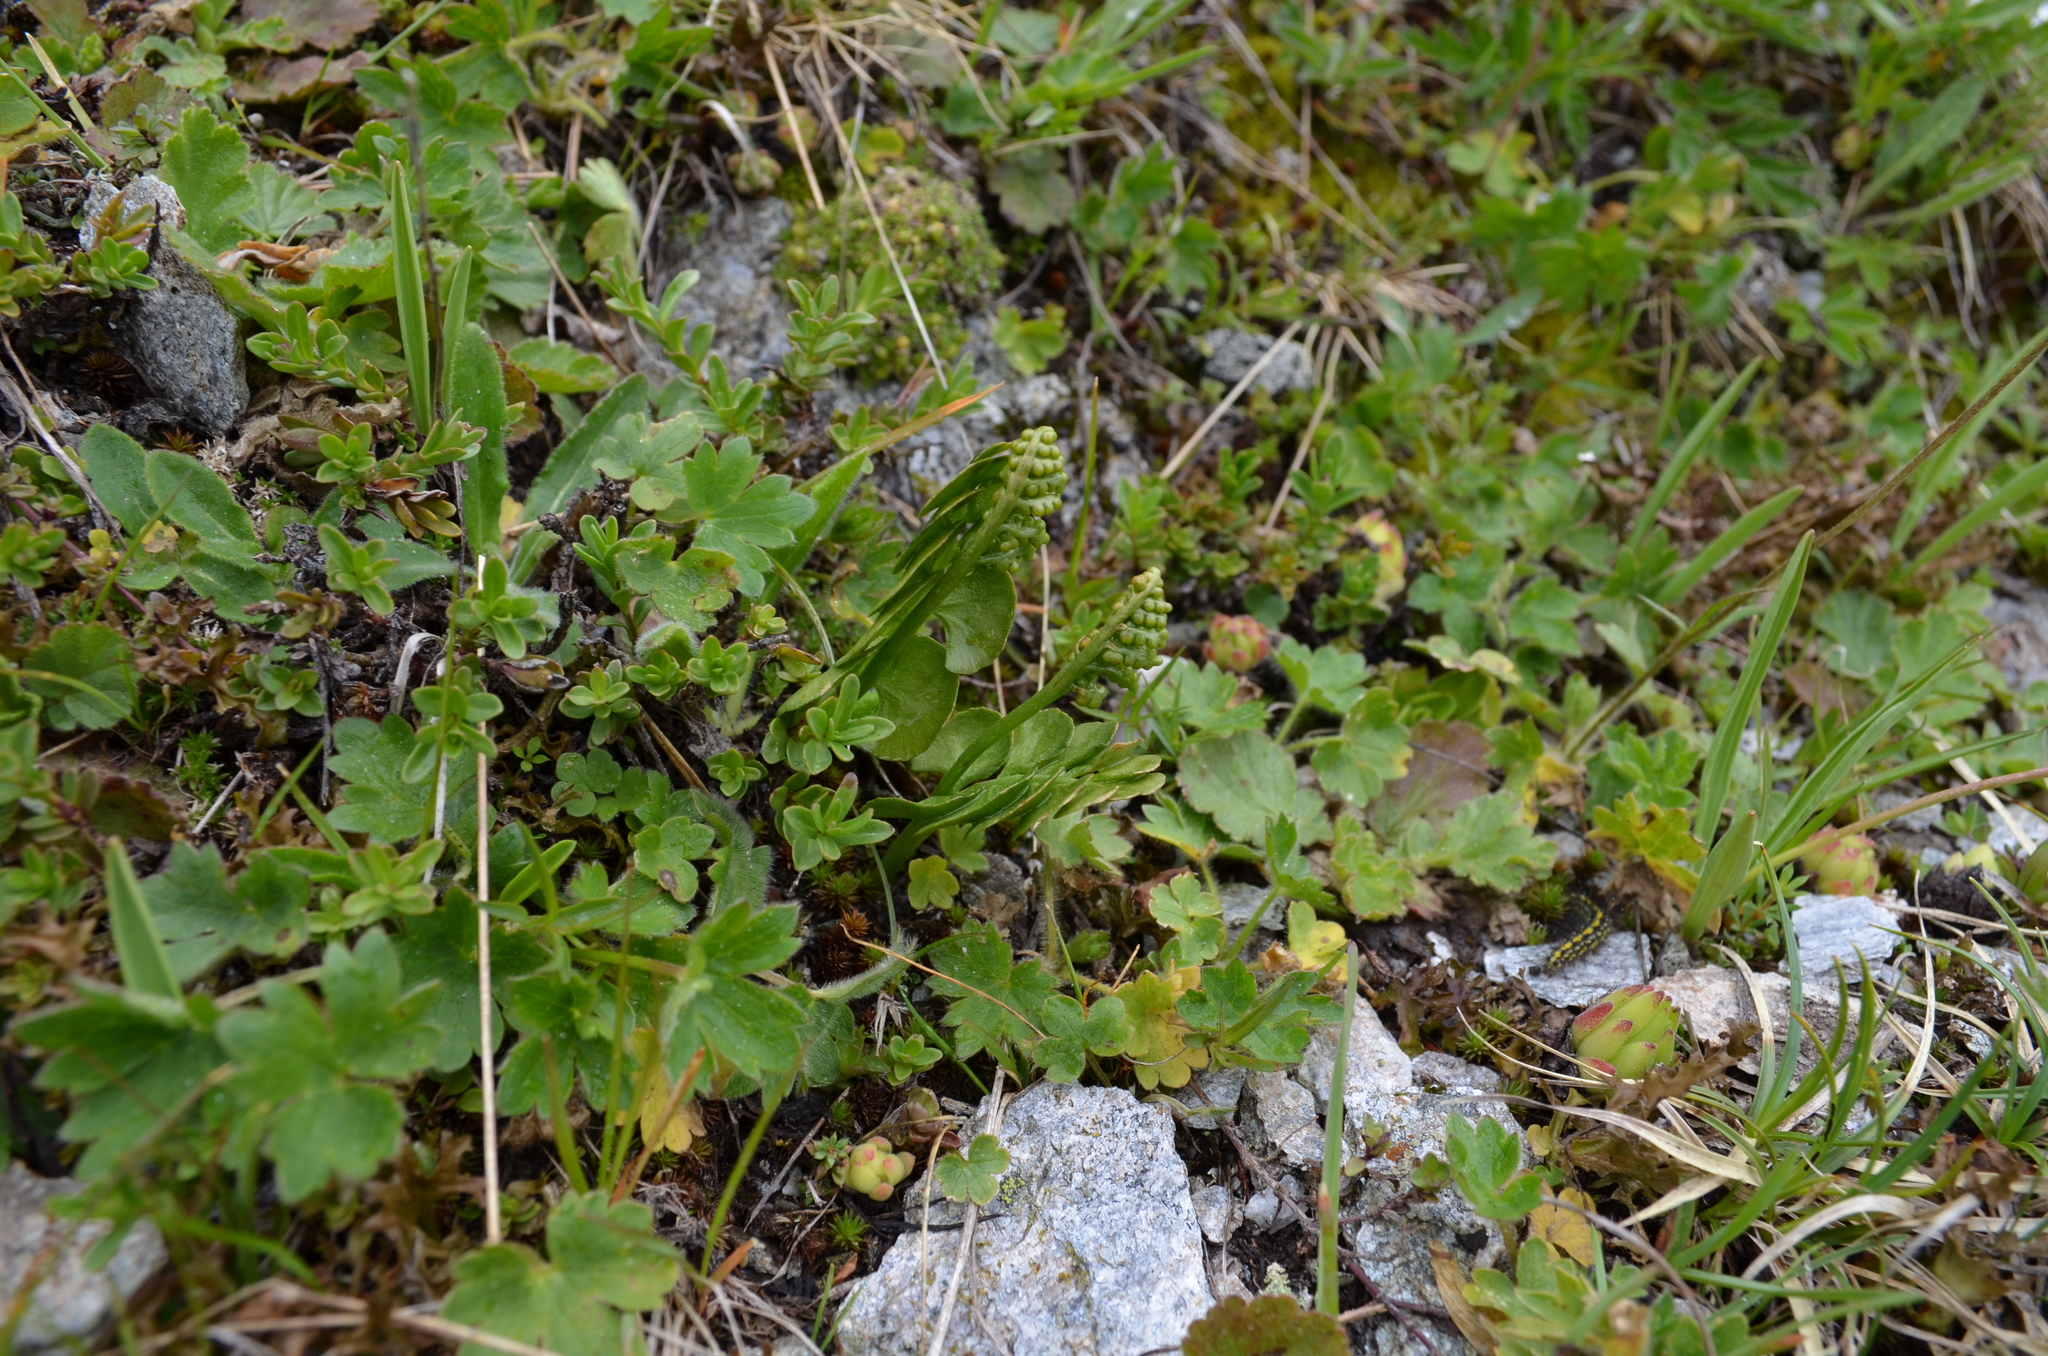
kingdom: Plantae
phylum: Tracheophyta
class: Polypodiopsida
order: Ophioglossales
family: Ophioglossaceae
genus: Botrychium
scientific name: Botrychium lunaria
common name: Moonwort
